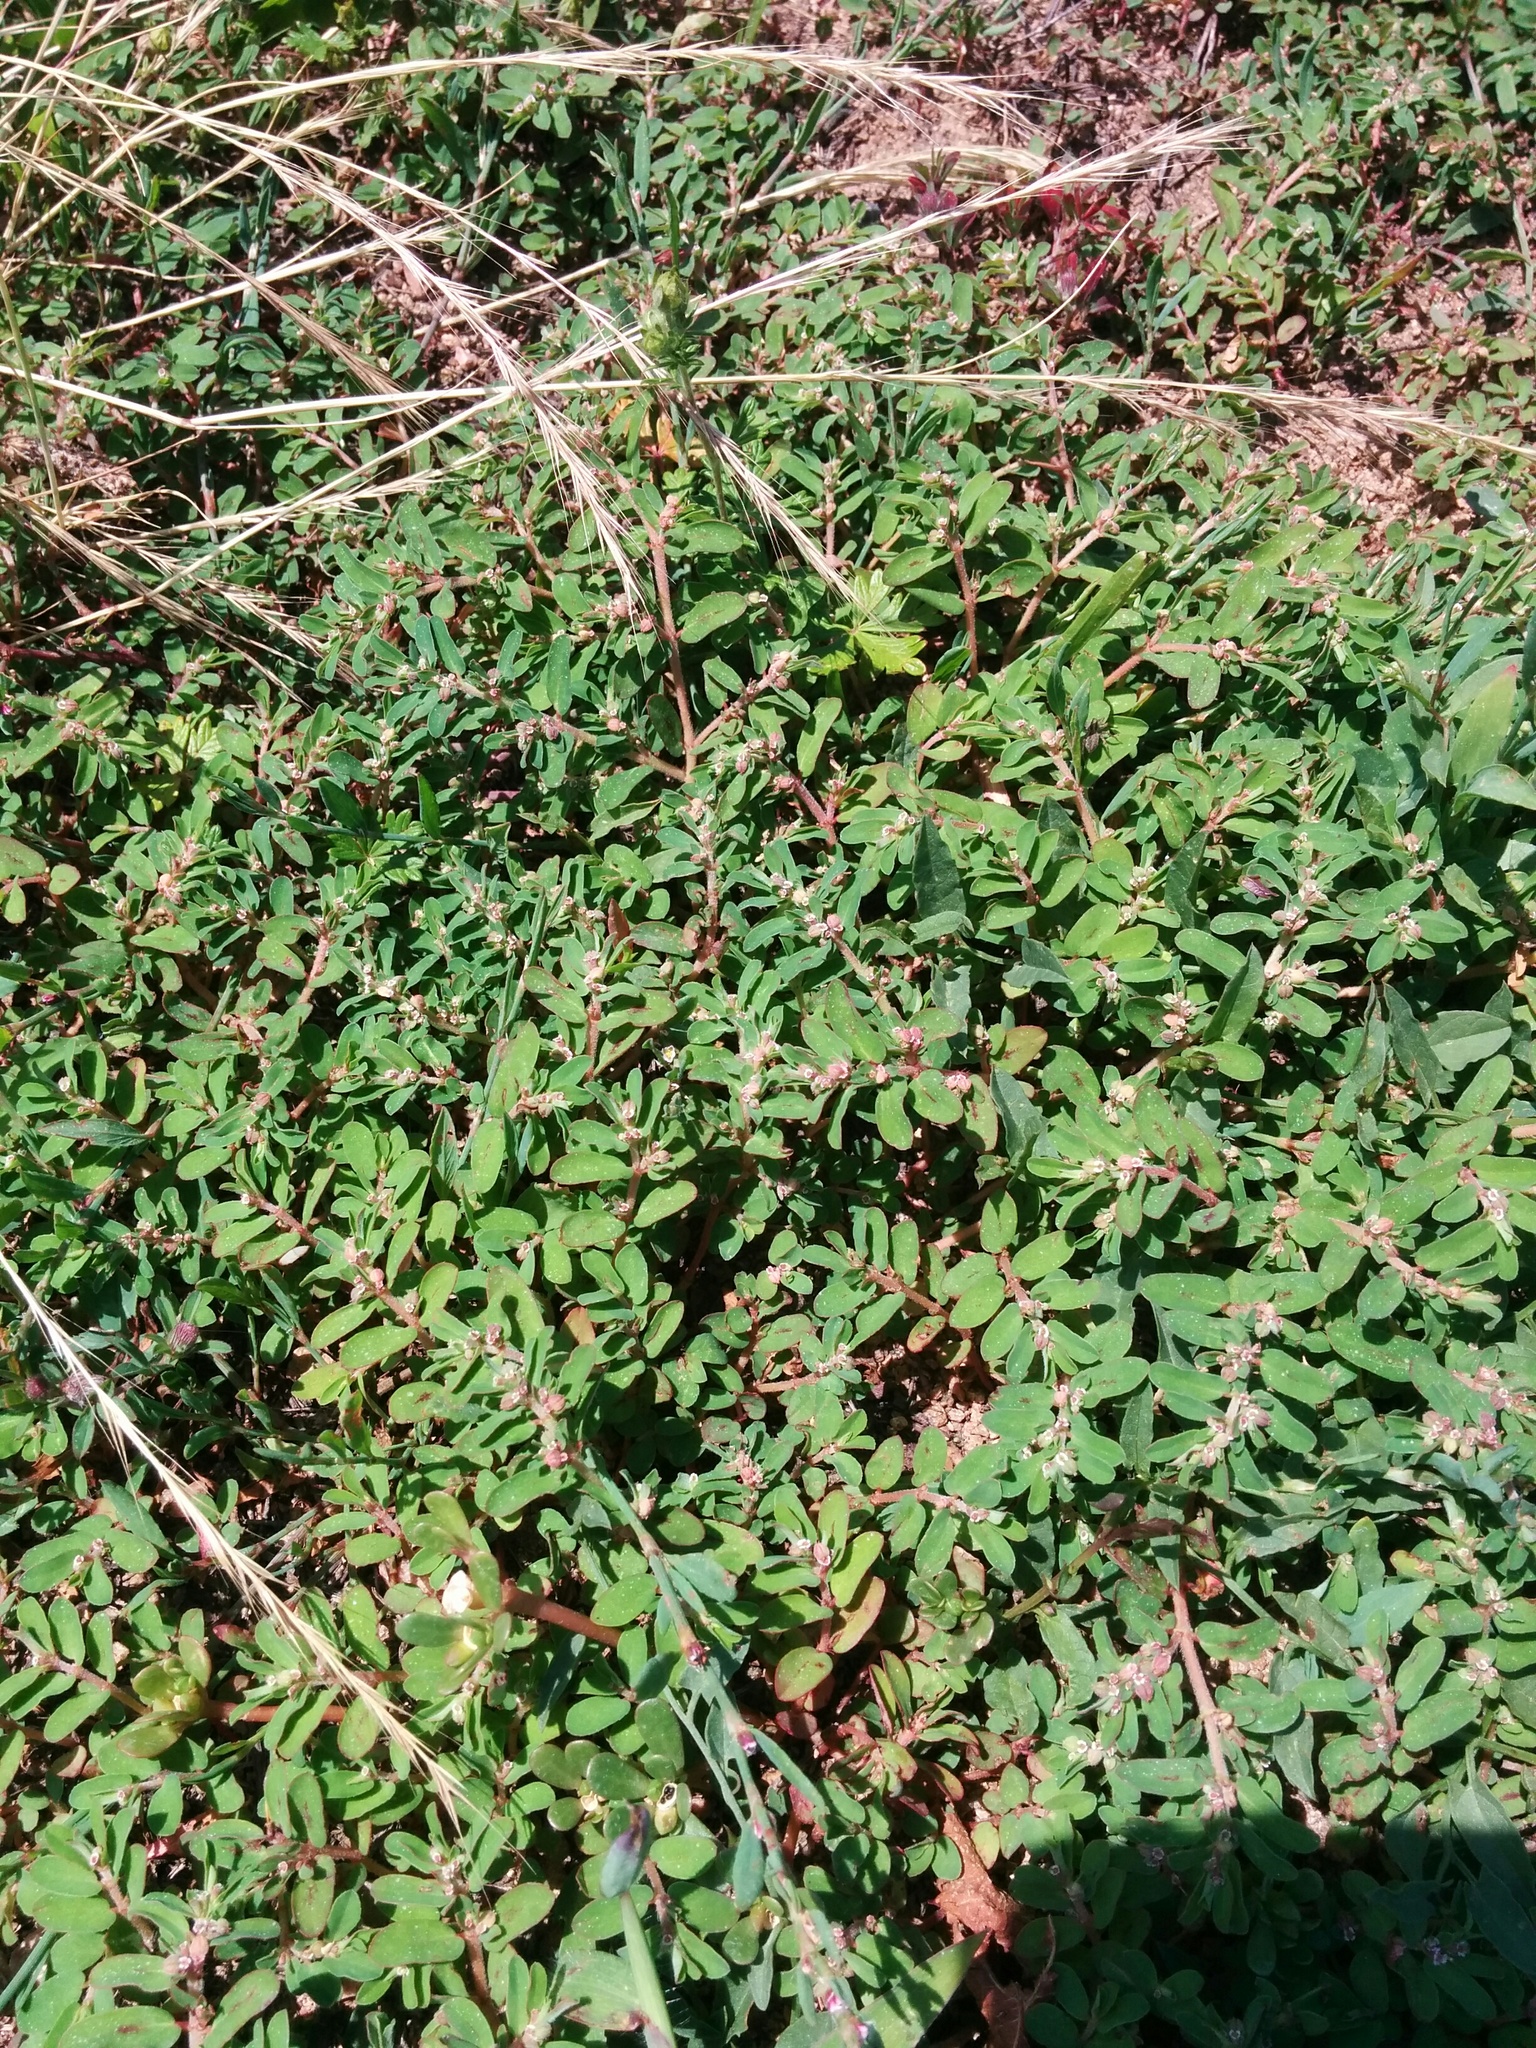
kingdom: Plantae
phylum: Tracheophyta
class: Magnoliopsida
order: Malpighiales
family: Euphorbiaceae
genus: Euphorbia
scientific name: Euphorbia maculata
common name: Spotted spurge
